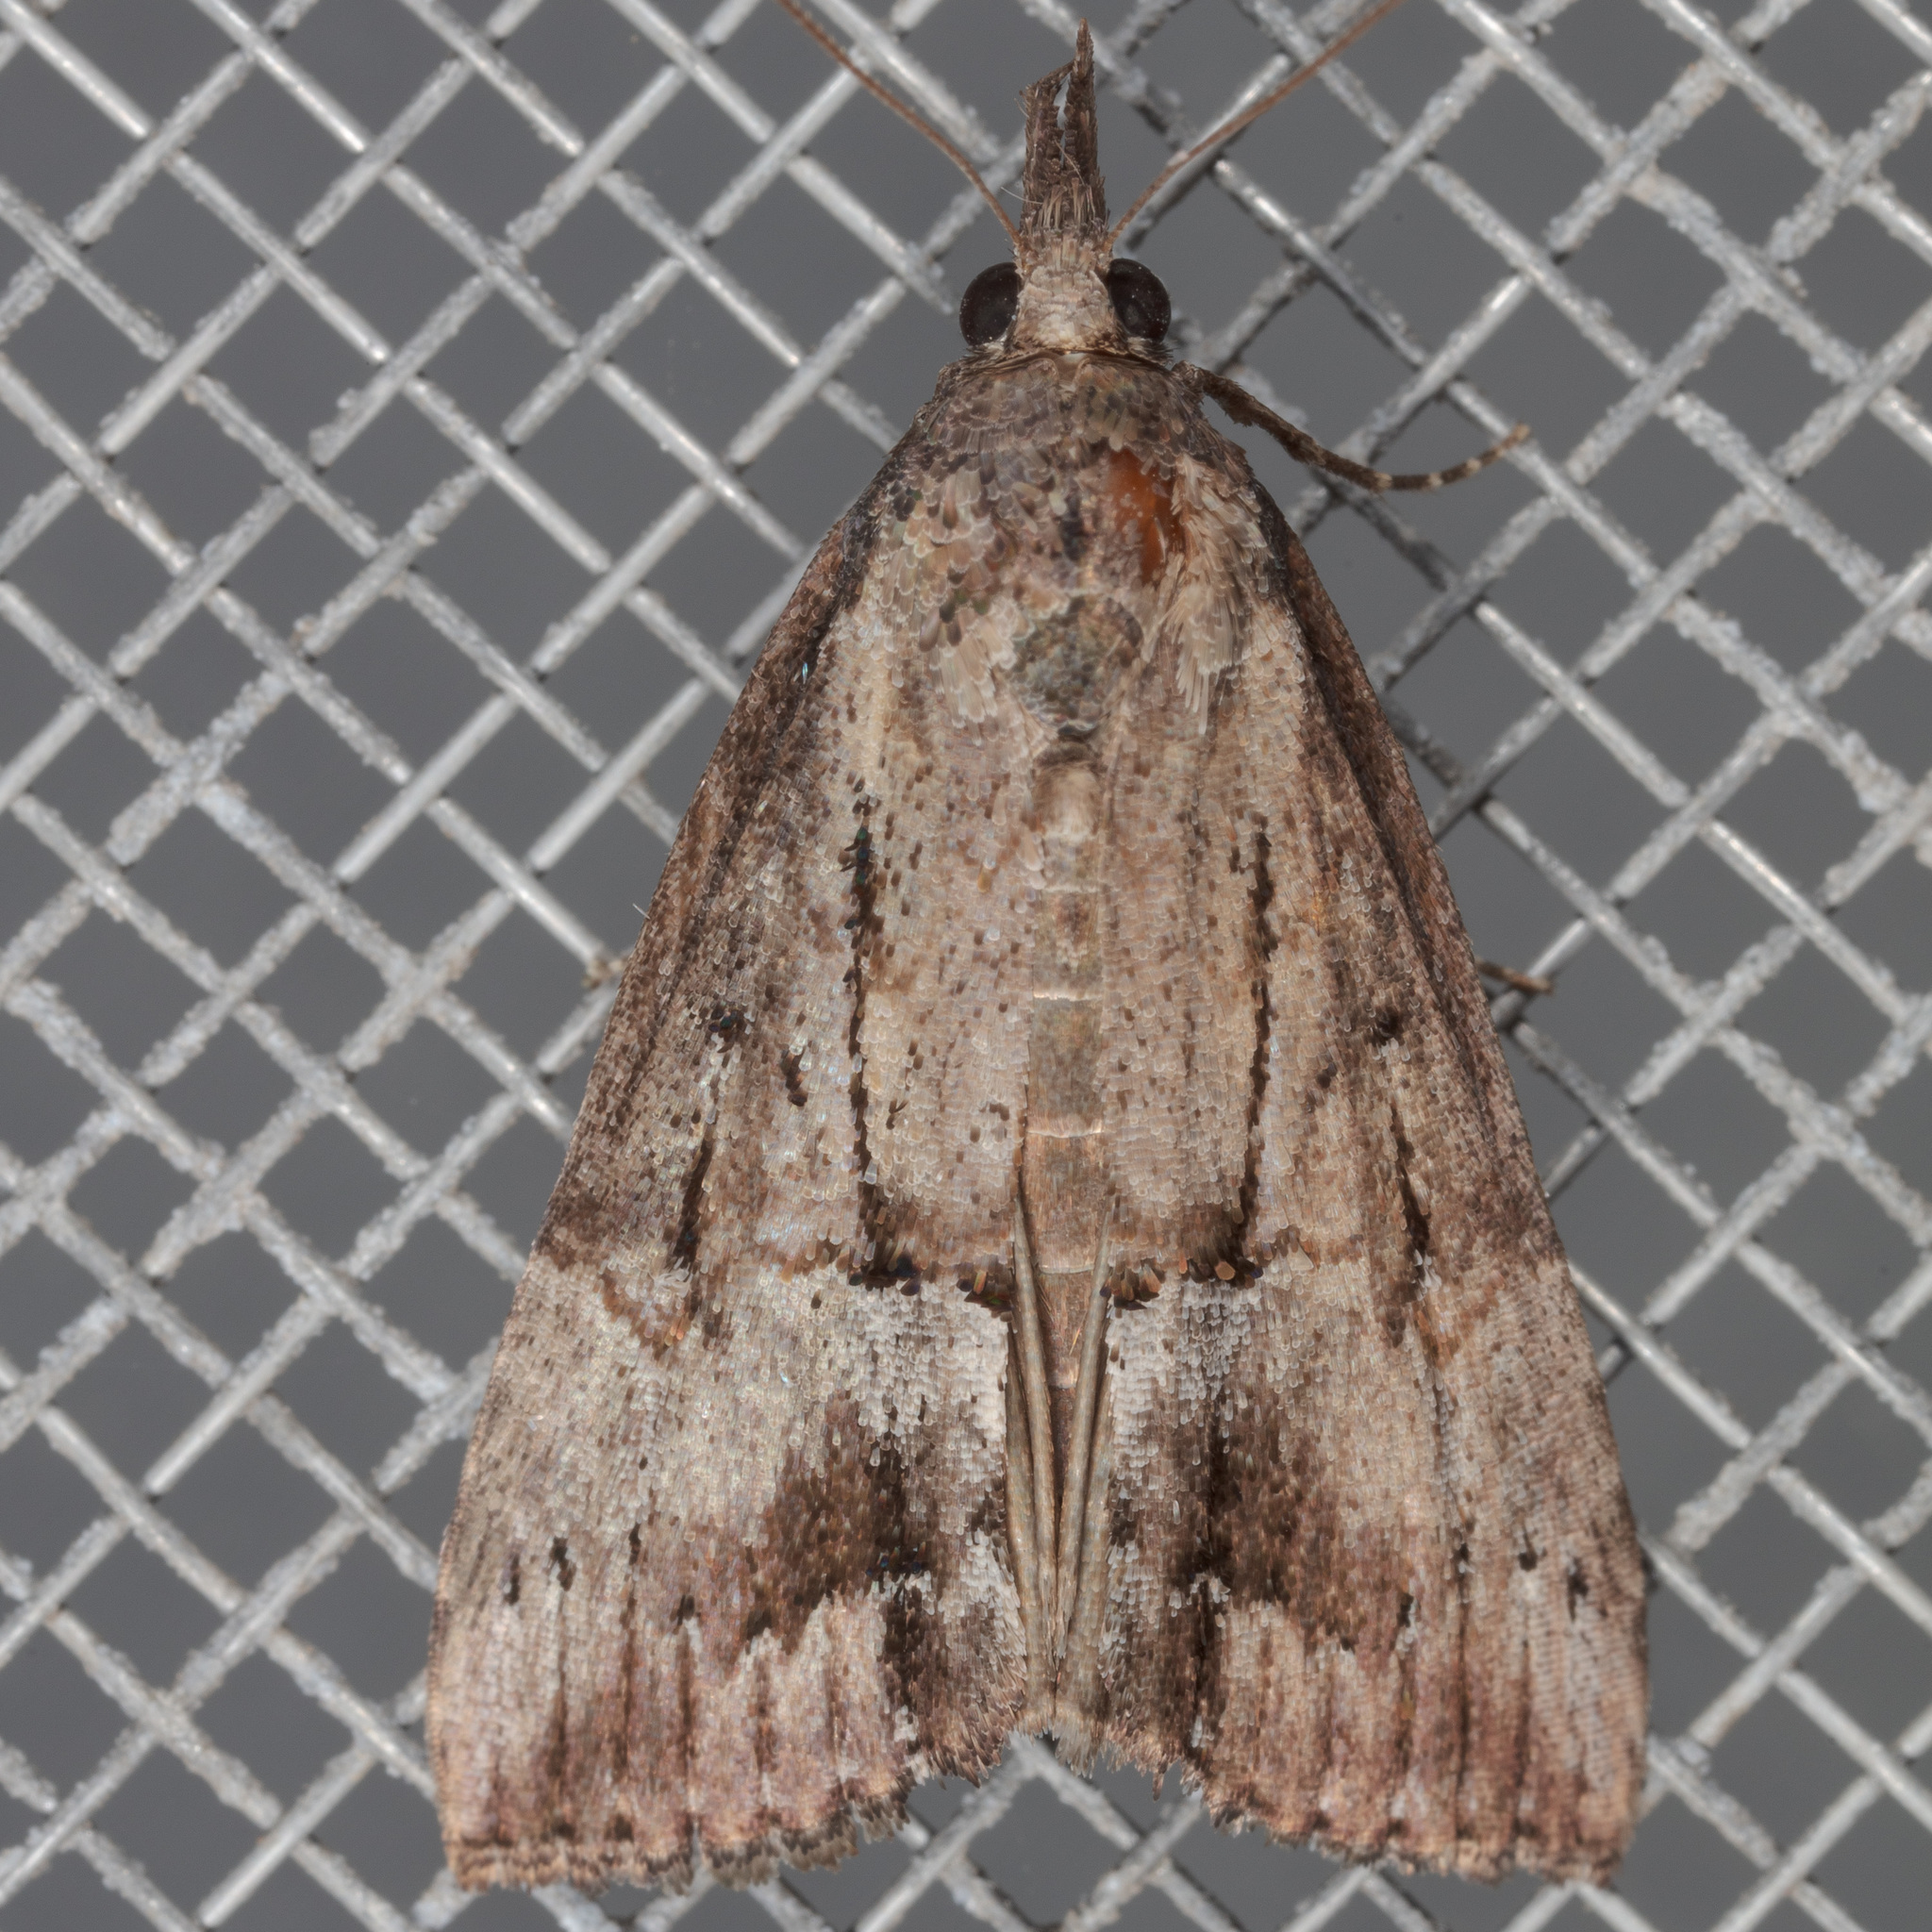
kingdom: Animalia
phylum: Arthropoda
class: Insecta
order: Lepidoptera
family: Erebidae
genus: Hypena
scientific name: Hypena scabra
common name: Green cloverworm
